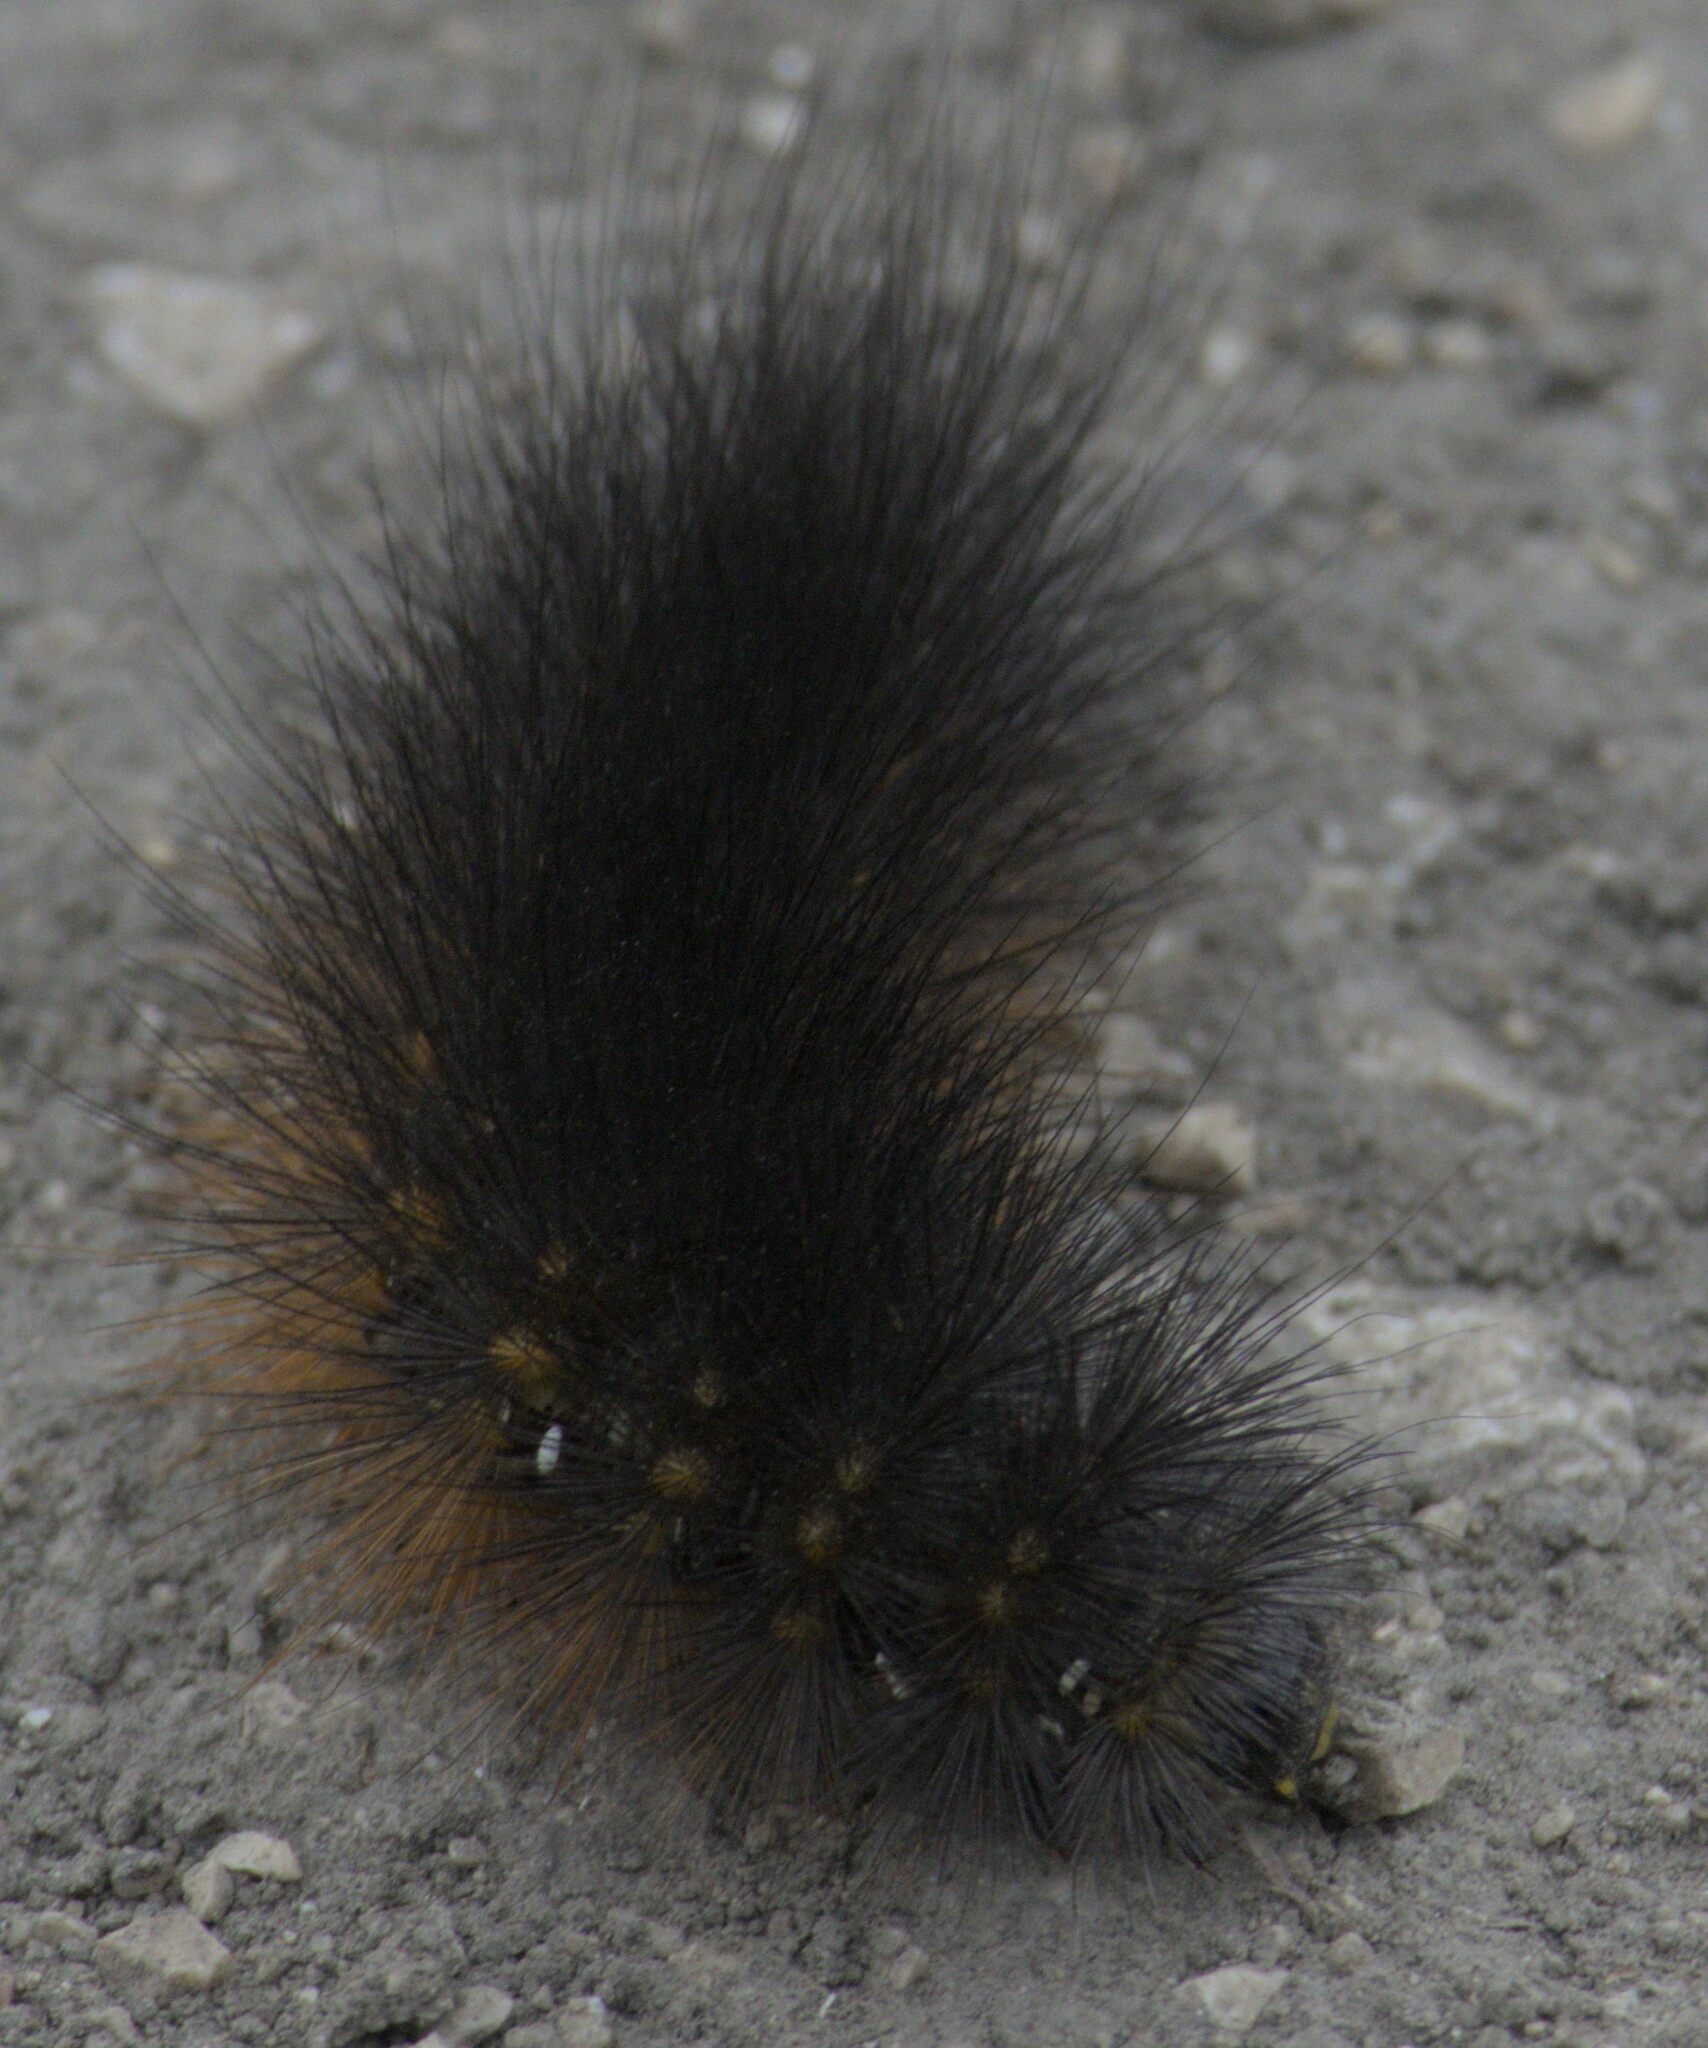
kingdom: Animalia
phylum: Arthropoda
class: Insecta
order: Lepidoptera
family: Erebidae
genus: Estigmene
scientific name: Estigmene acrea
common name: Salt marsh moth
